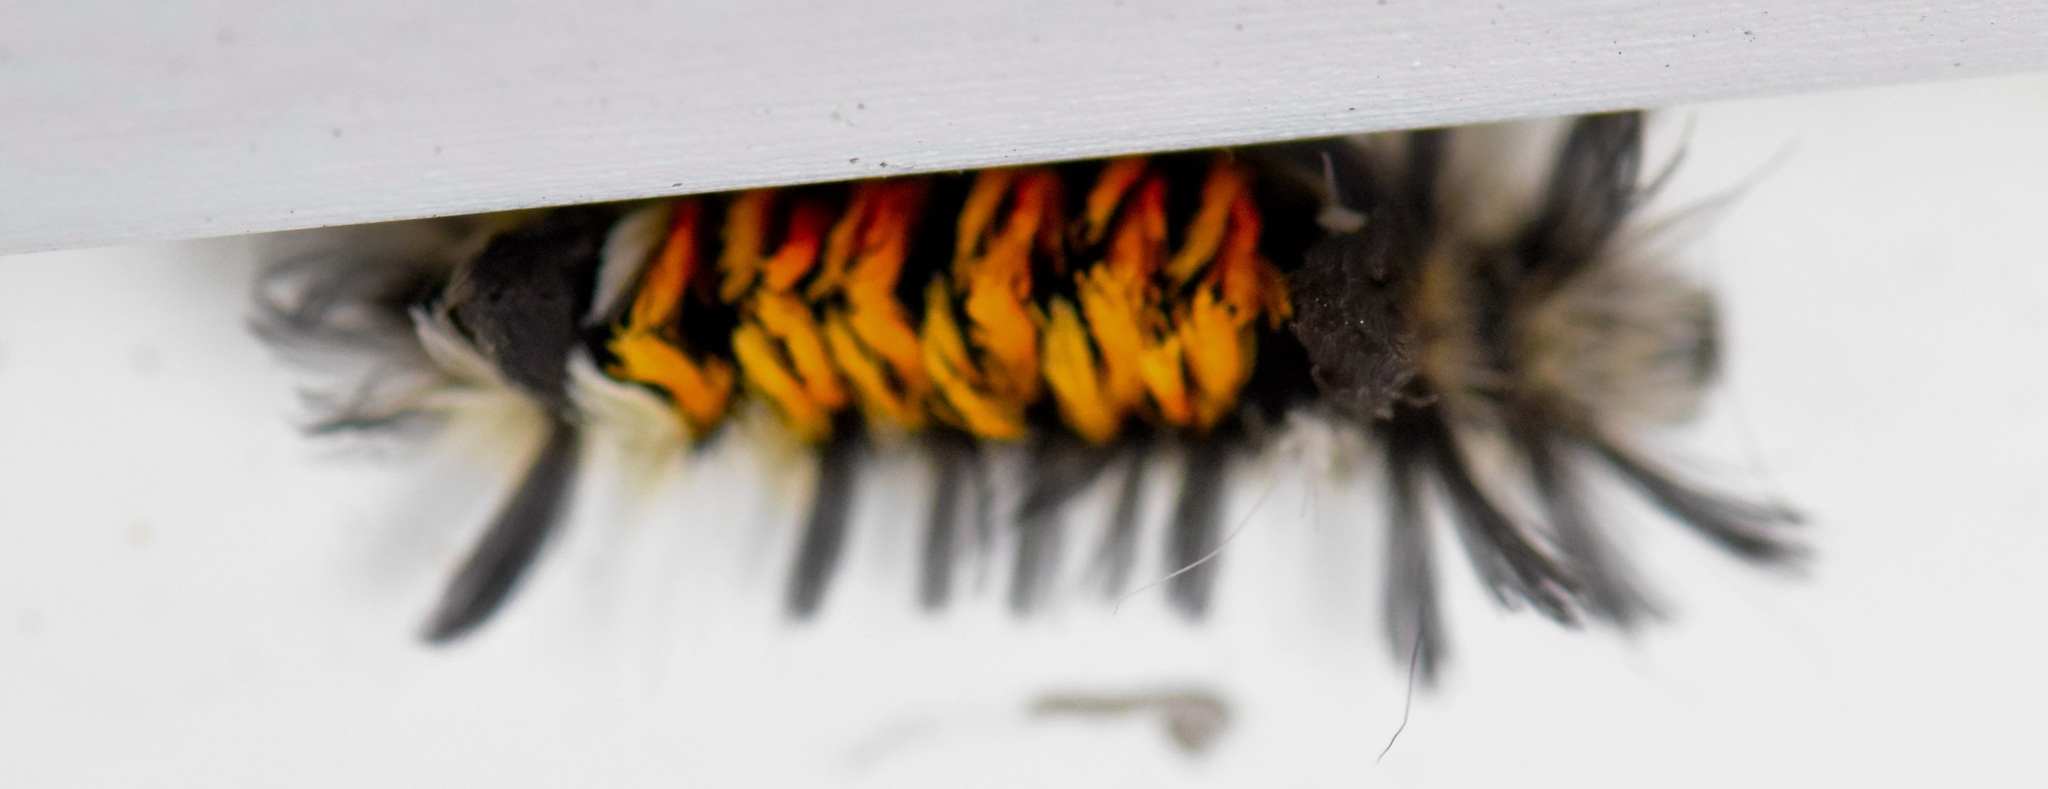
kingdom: Animalia
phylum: Arthropoda
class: Insecta
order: Lepidoptera
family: Erebidae
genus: Euchaetes
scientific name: Euchaetes egle
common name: Milkweed tussock moth
